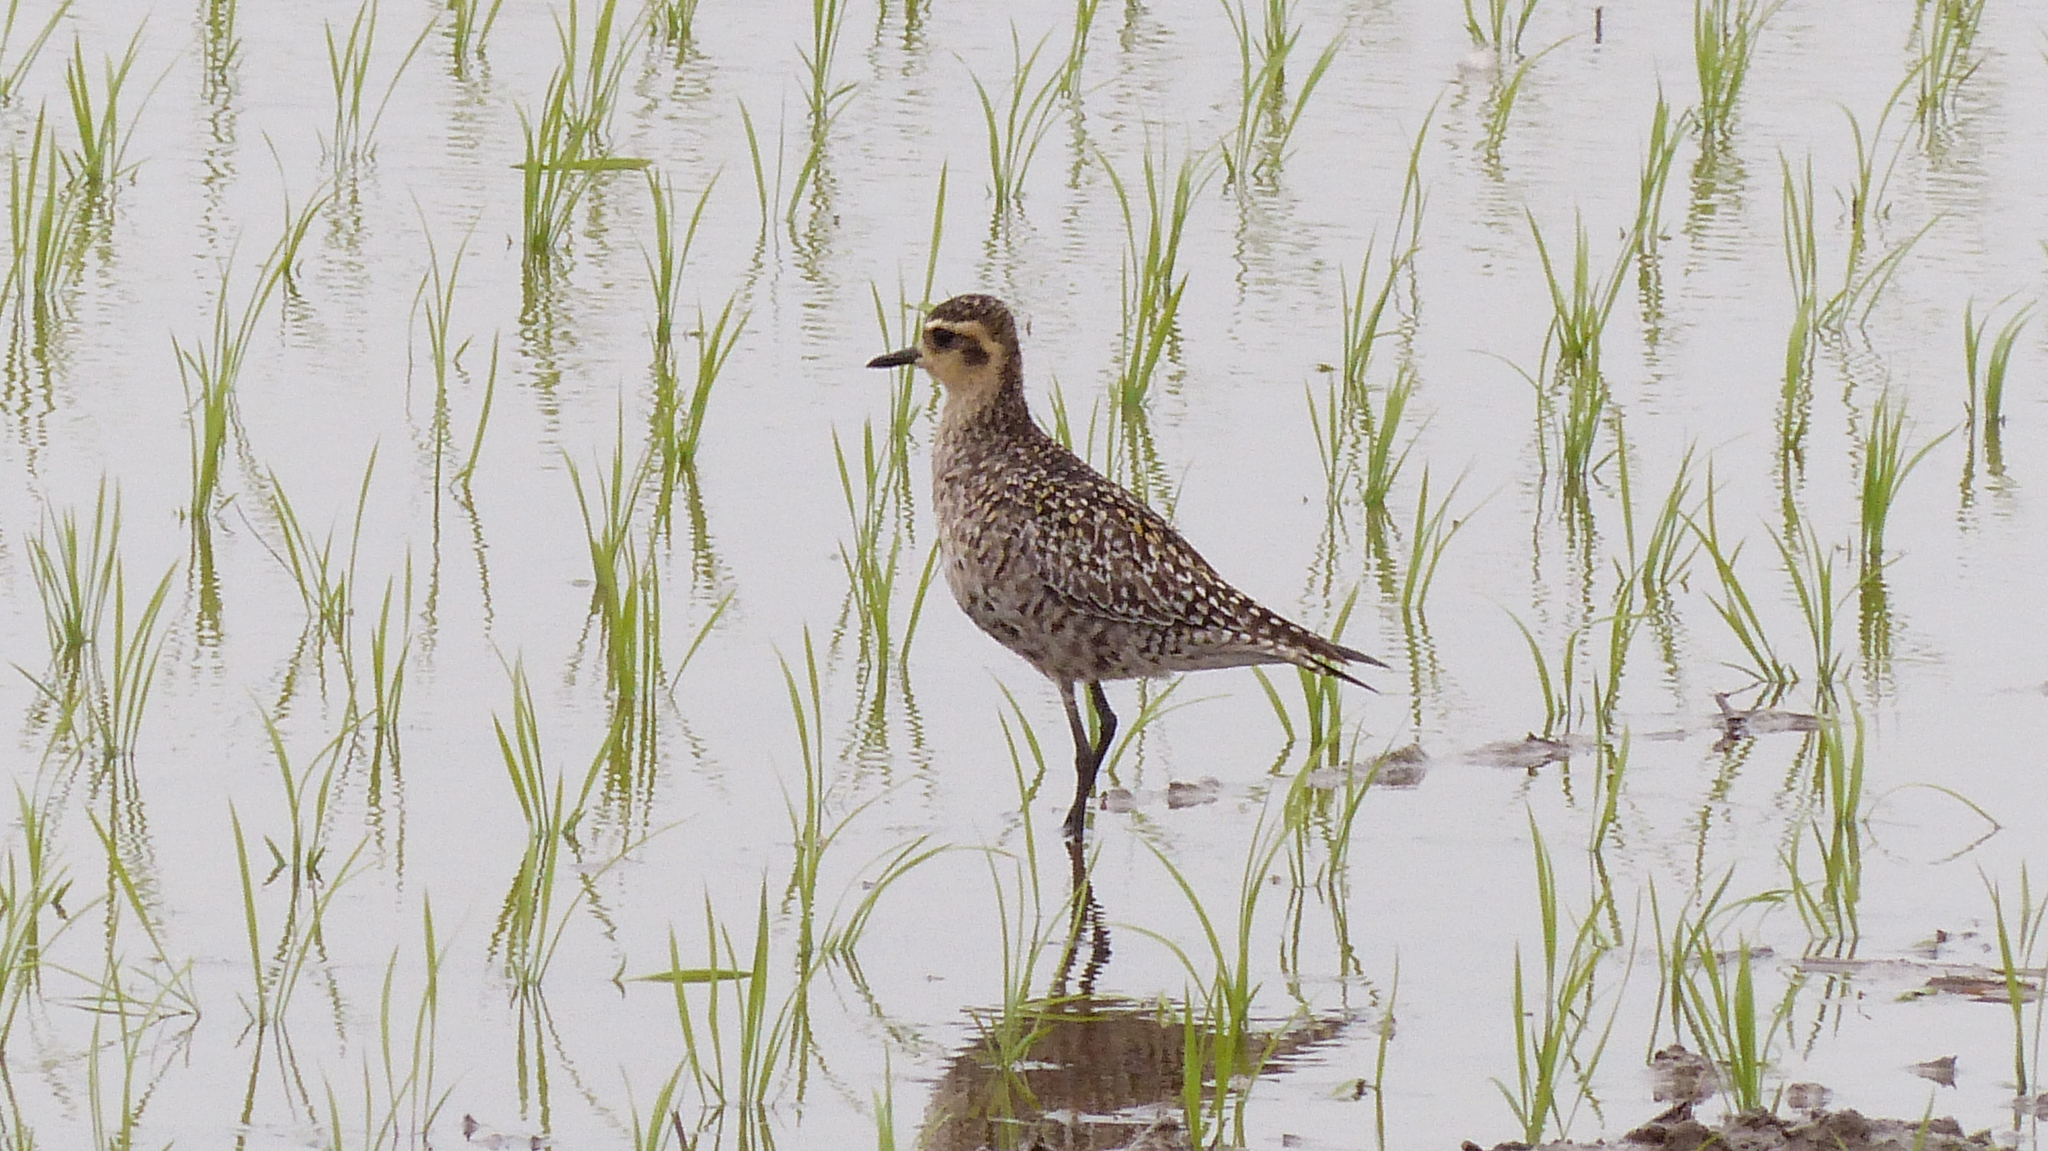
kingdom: Animalia
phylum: Chordata
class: Aves
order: Charadriiformes
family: Charadriidae
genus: Pluvialis
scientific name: Pluvialis fulva
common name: Pacific golden plover
